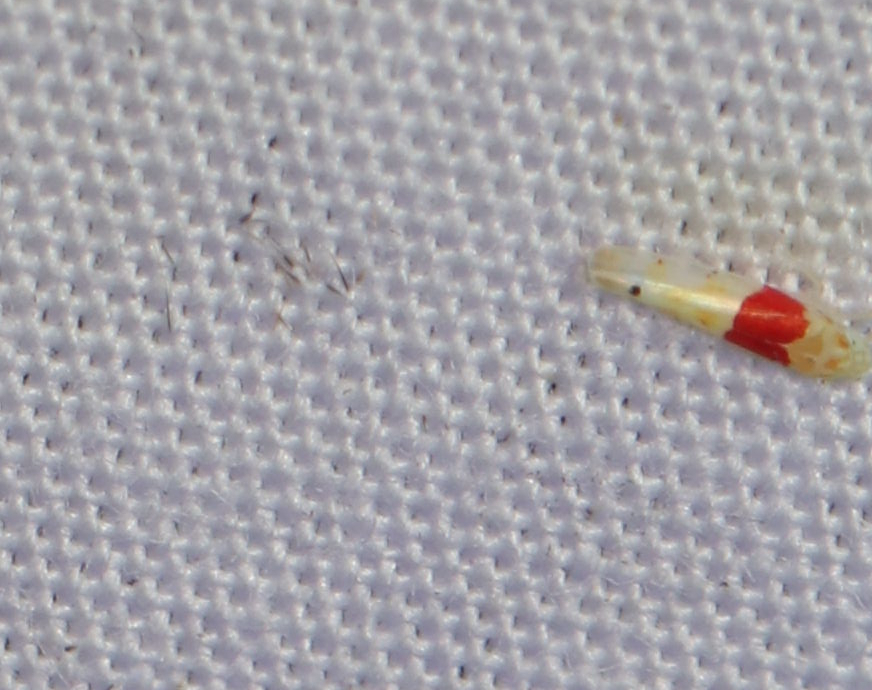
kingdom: Animalia
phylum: Arthropoda
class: Insecta
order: Hemiptera
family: Cicadellidae
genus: Eratoneura
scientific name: Eratoneura osborni
